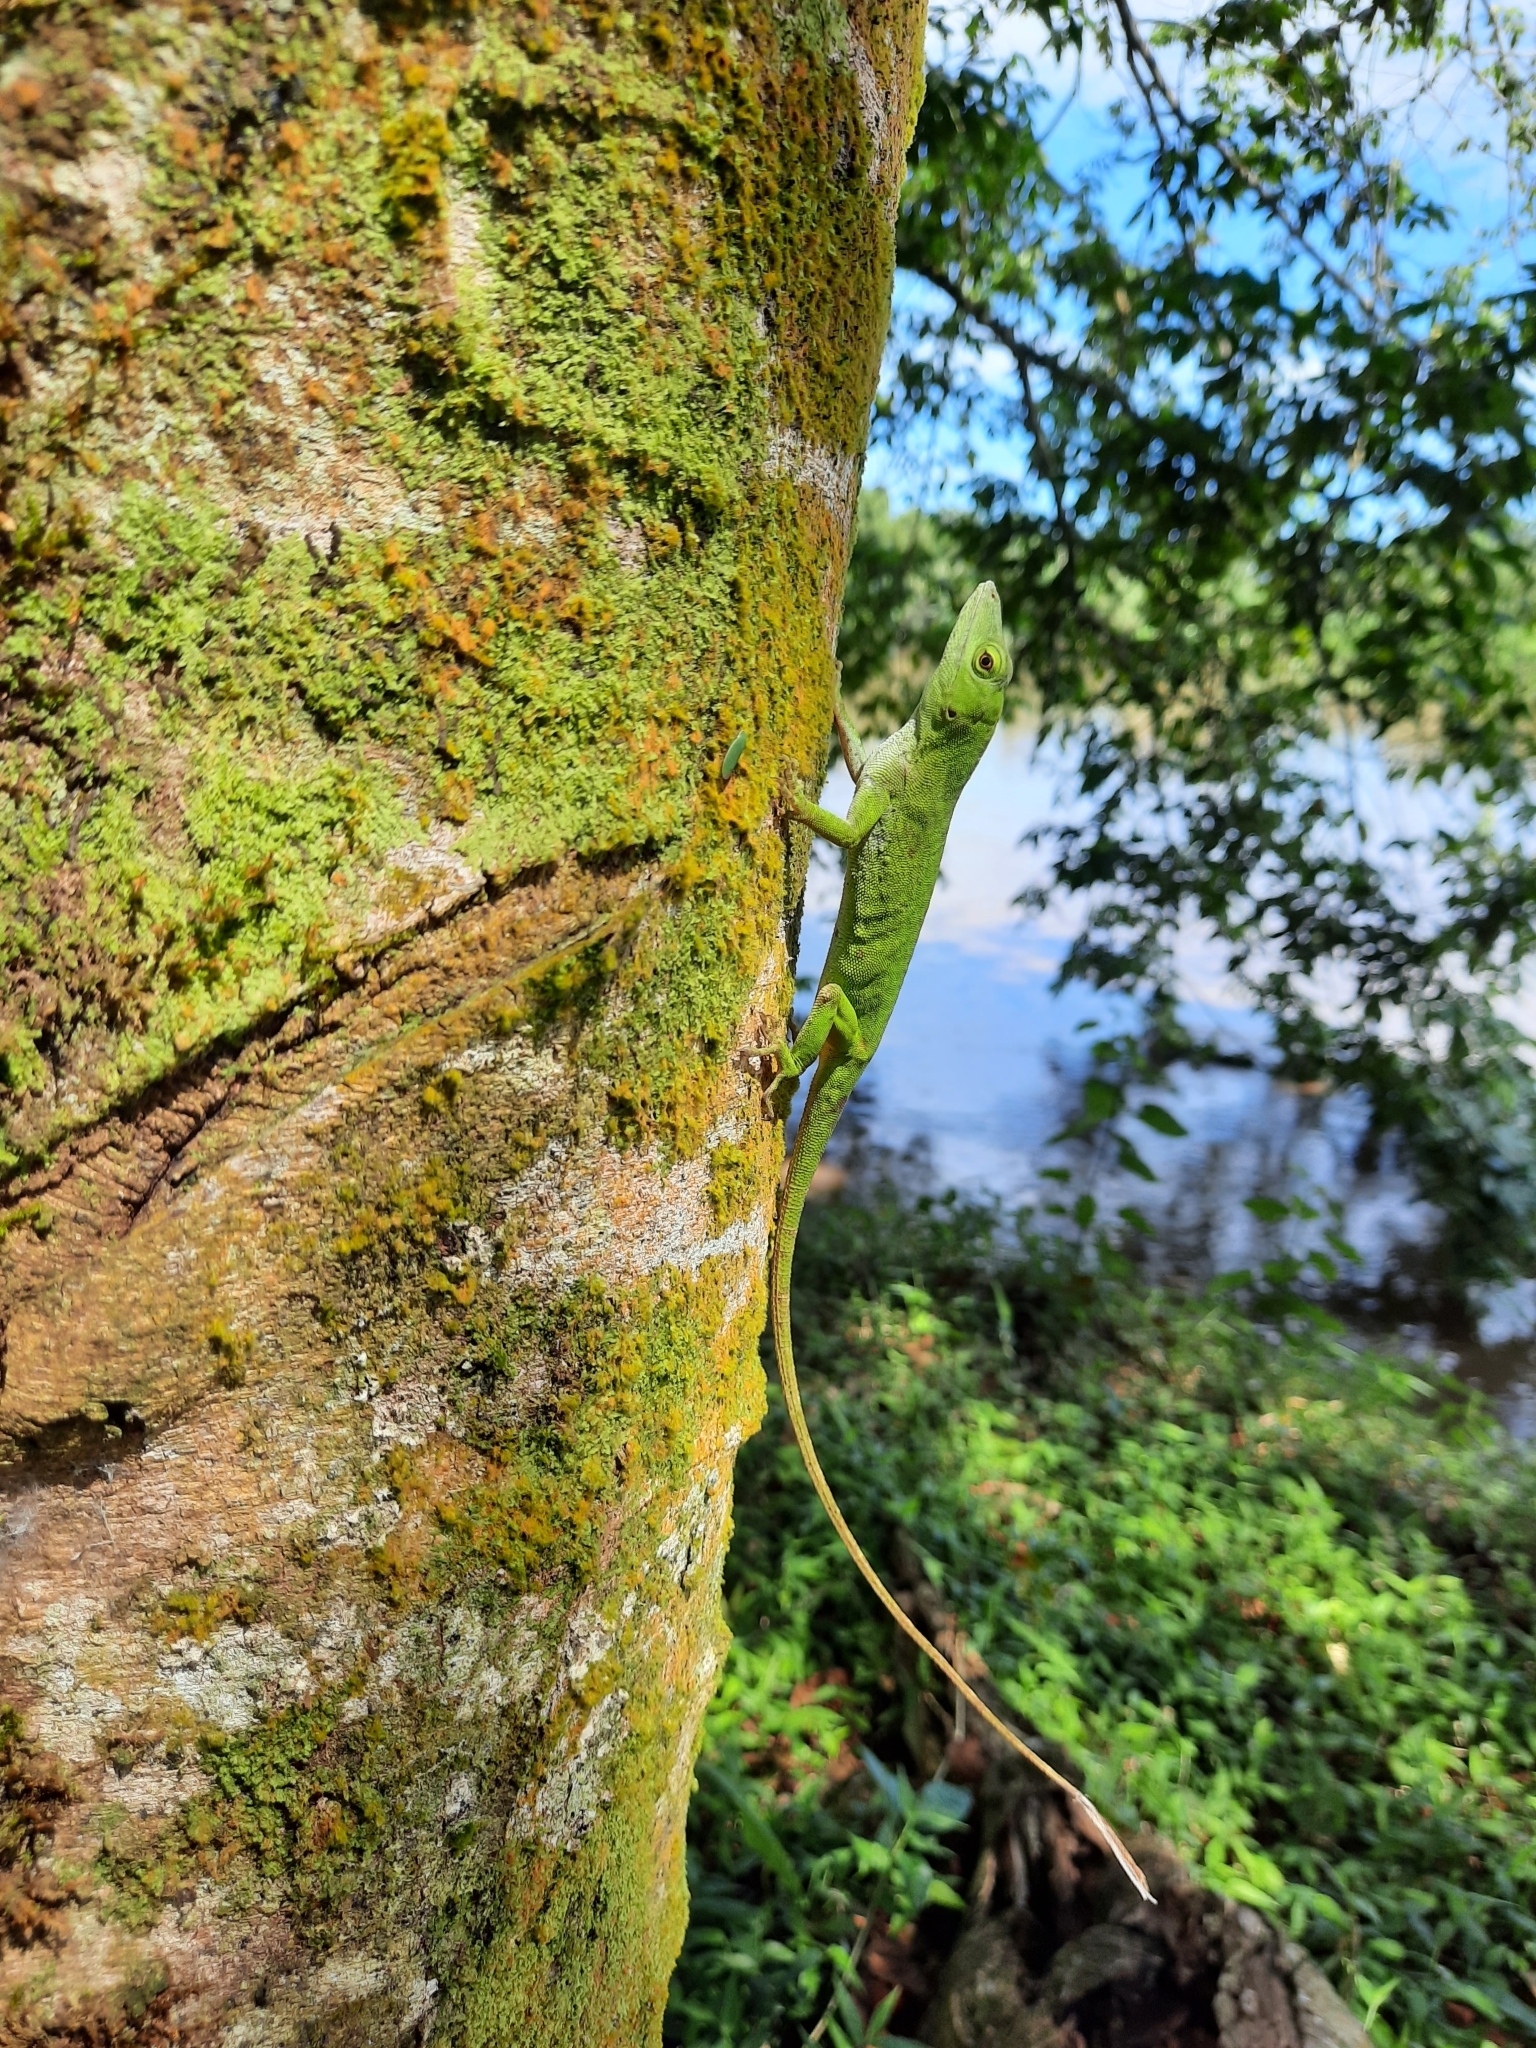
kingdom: Animalia
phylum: Chordata
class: Squamata
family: Dactyloidae
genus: Anolis
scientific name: Anolis biporcatus
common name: Giant green anole
